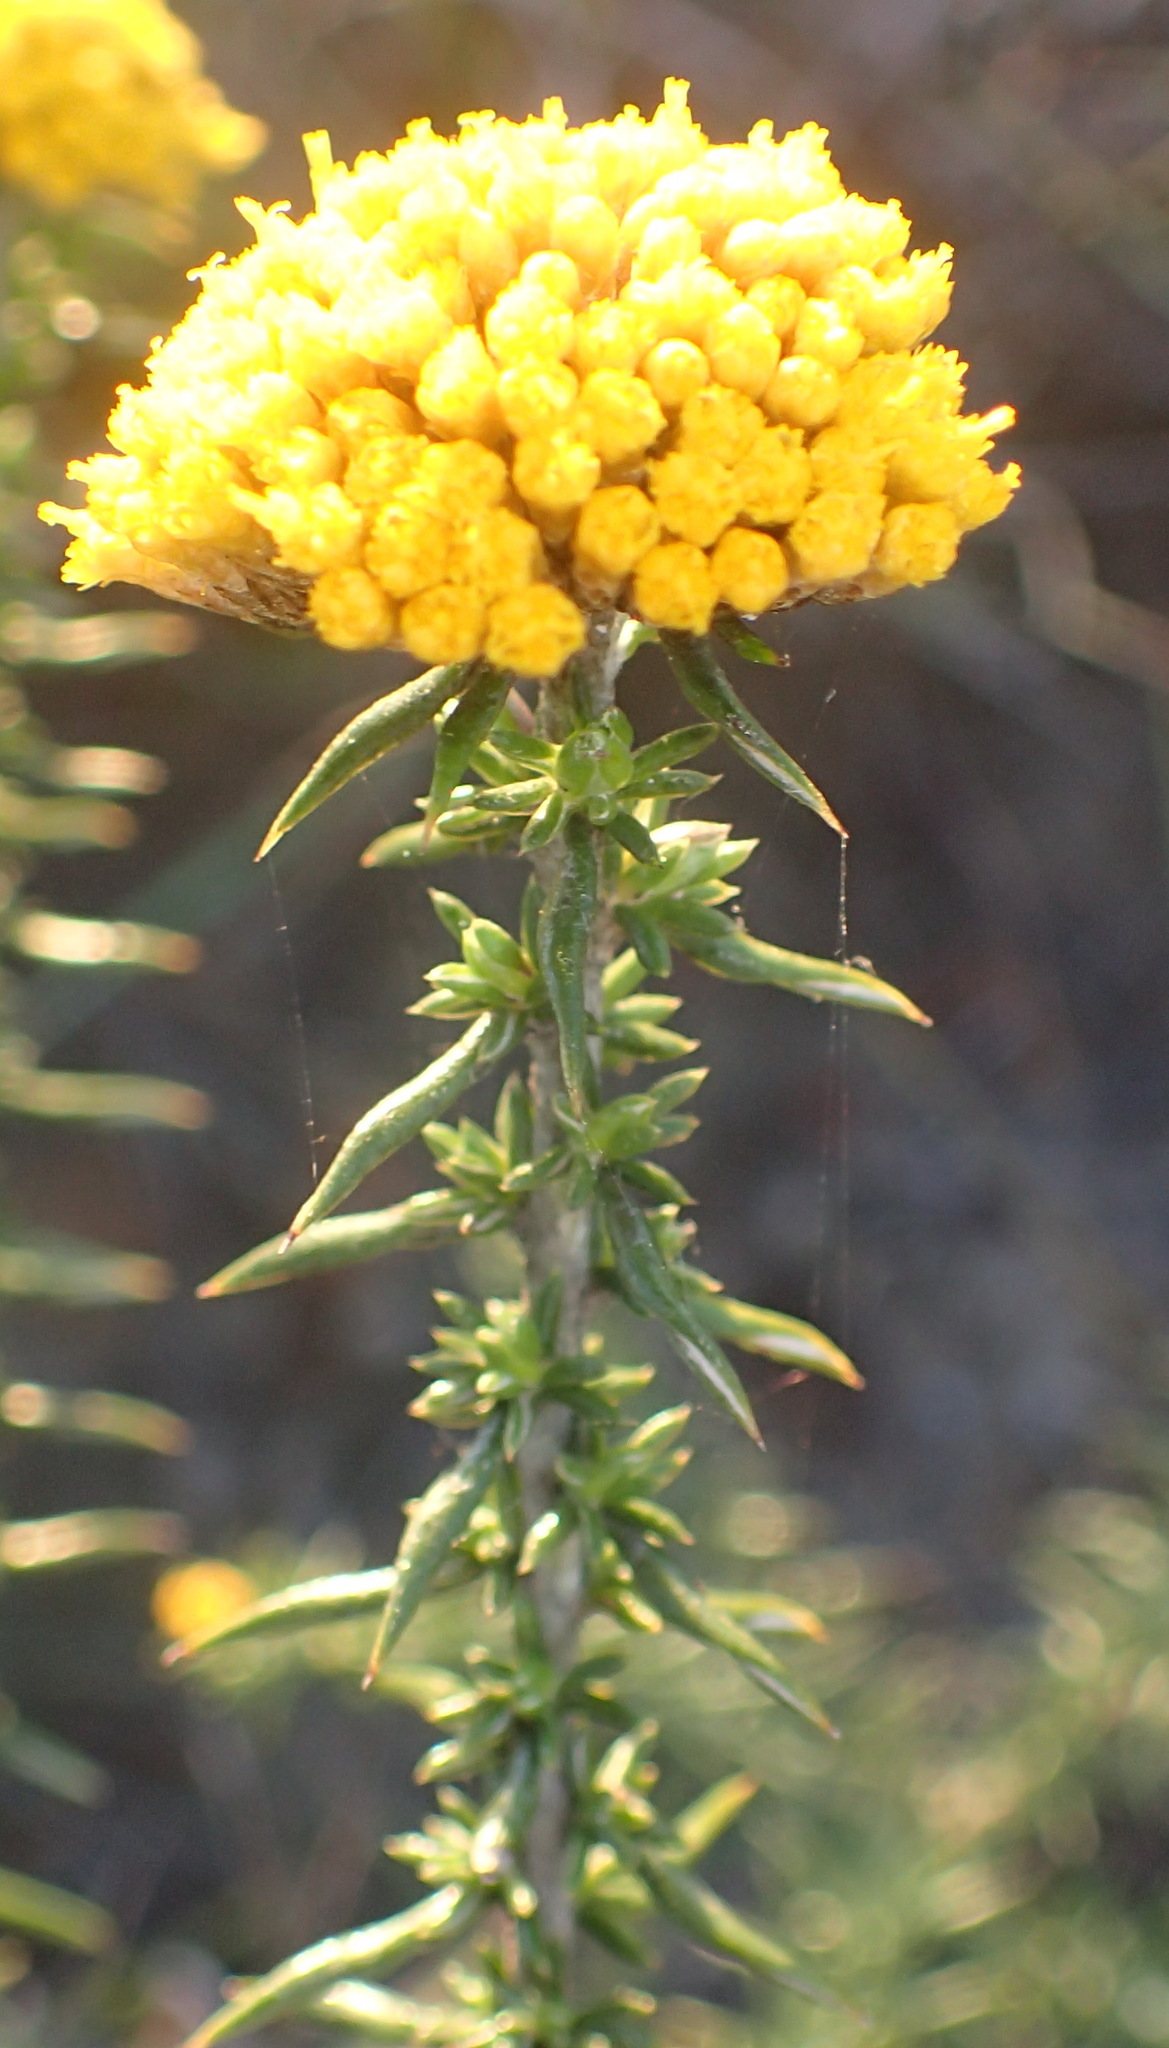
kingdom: Plantae
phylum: Tracheophyta
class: Magnoliopsida
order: Asterales
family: Asteraceae
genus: Metalasia
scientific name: Metalasia aurea
